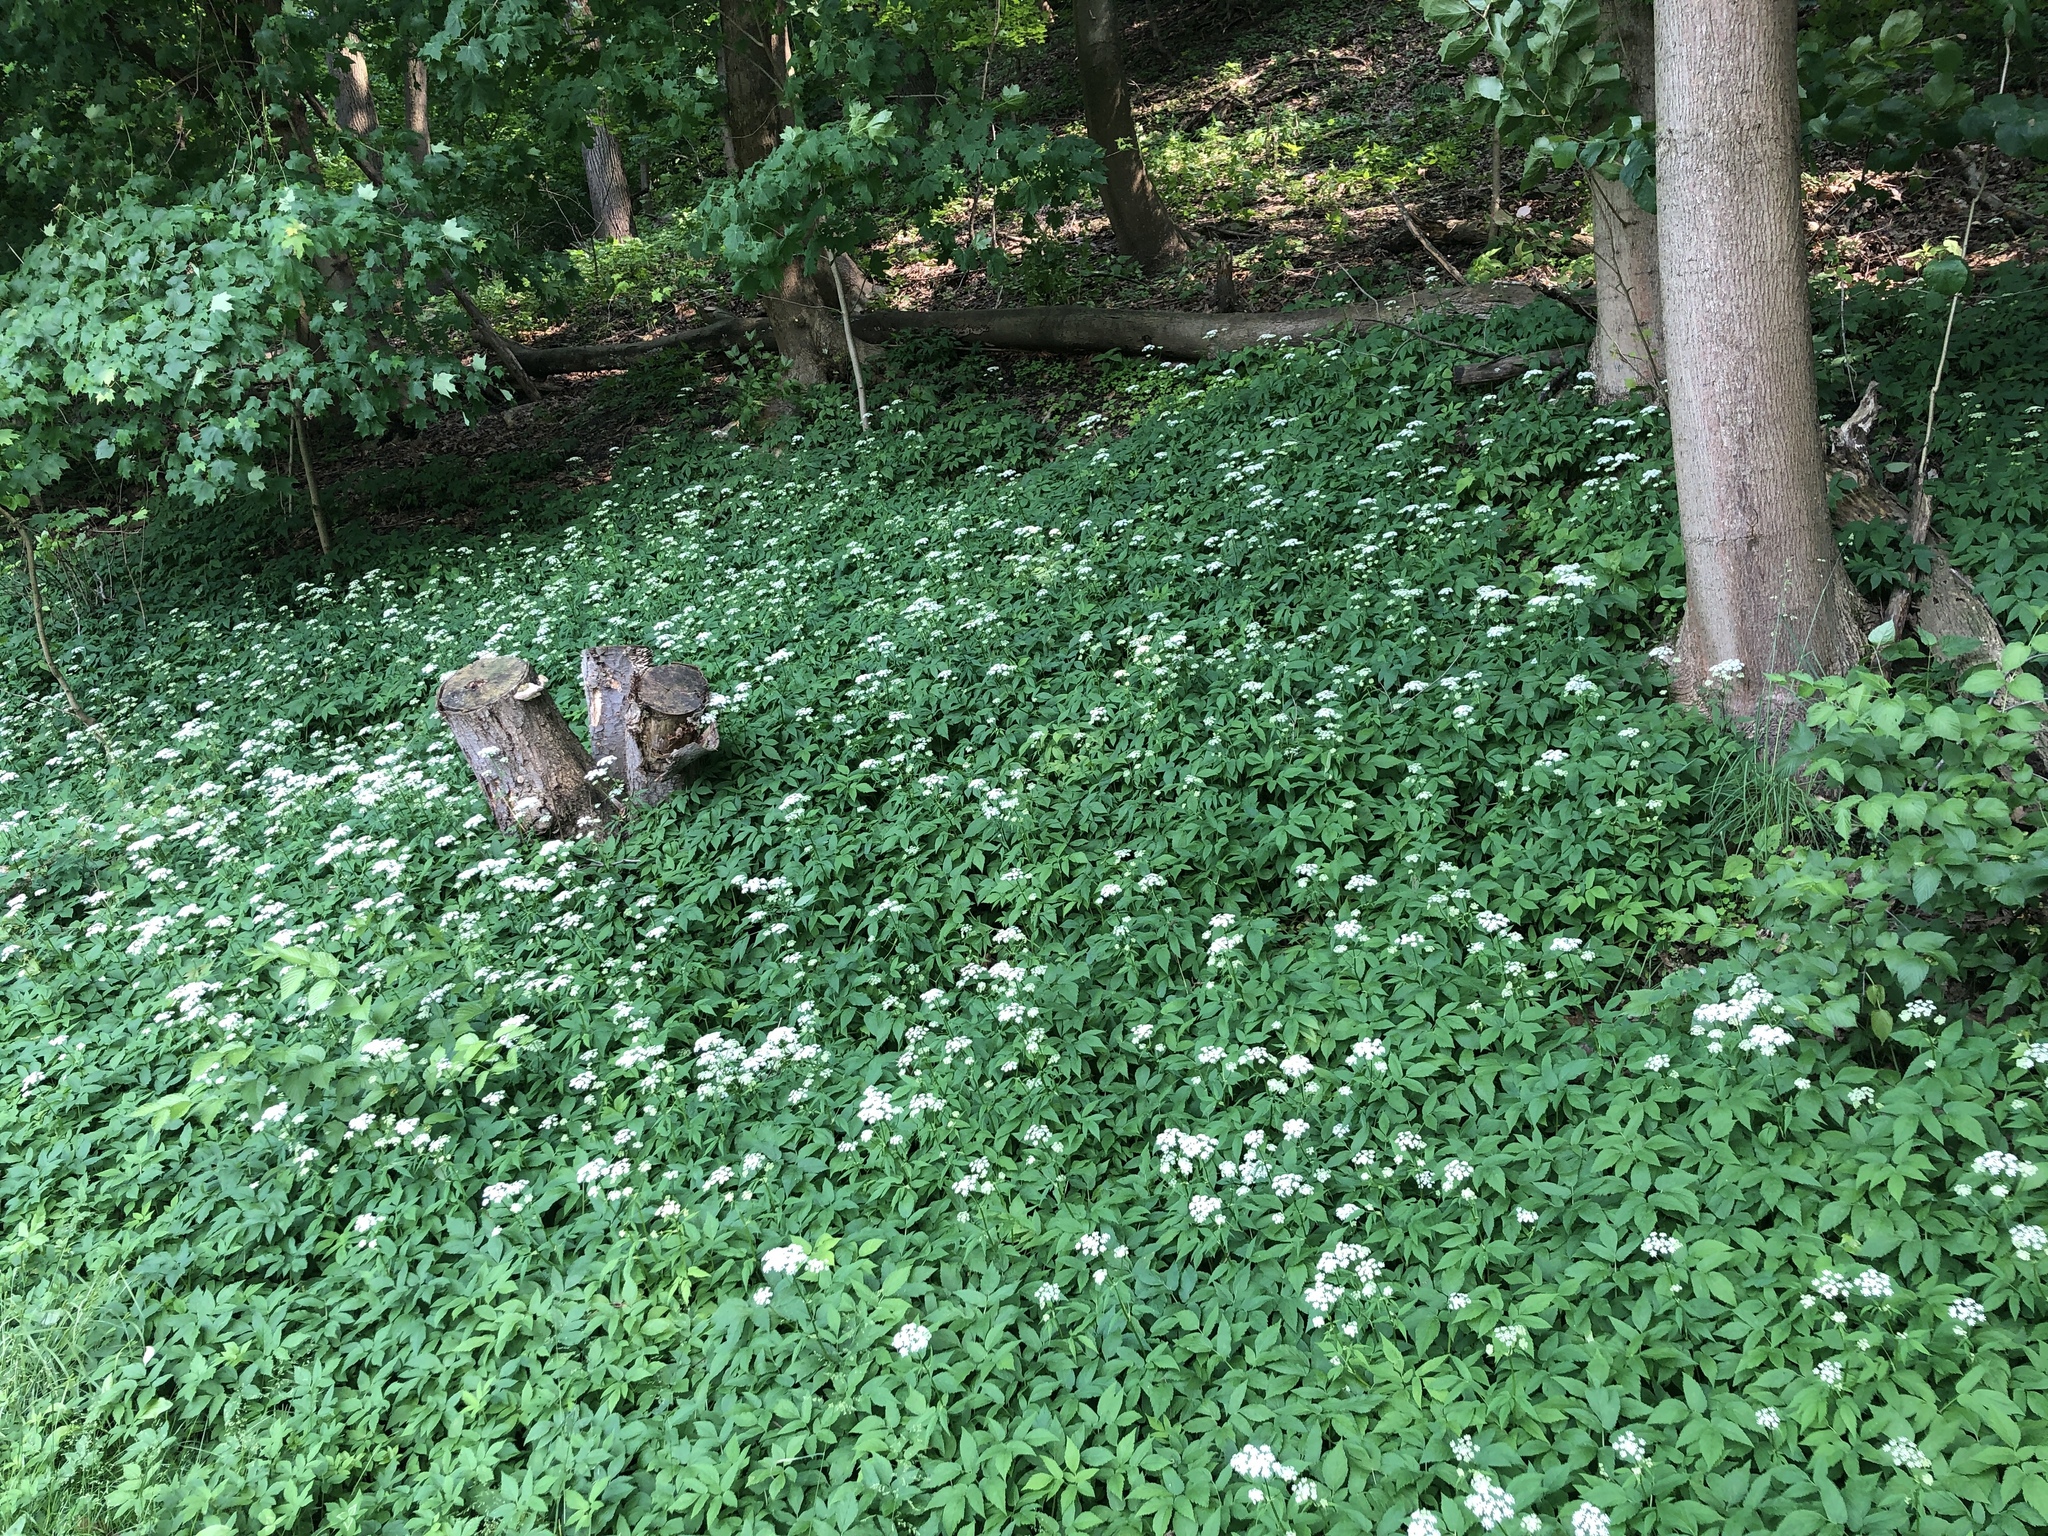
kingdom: Plantae
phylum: Tracheophyta
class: Magnoliopsida
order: Apiales
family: Apiaceae
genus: Aegopodium
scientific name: Aegopodium podagraria
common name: Ground-elder
